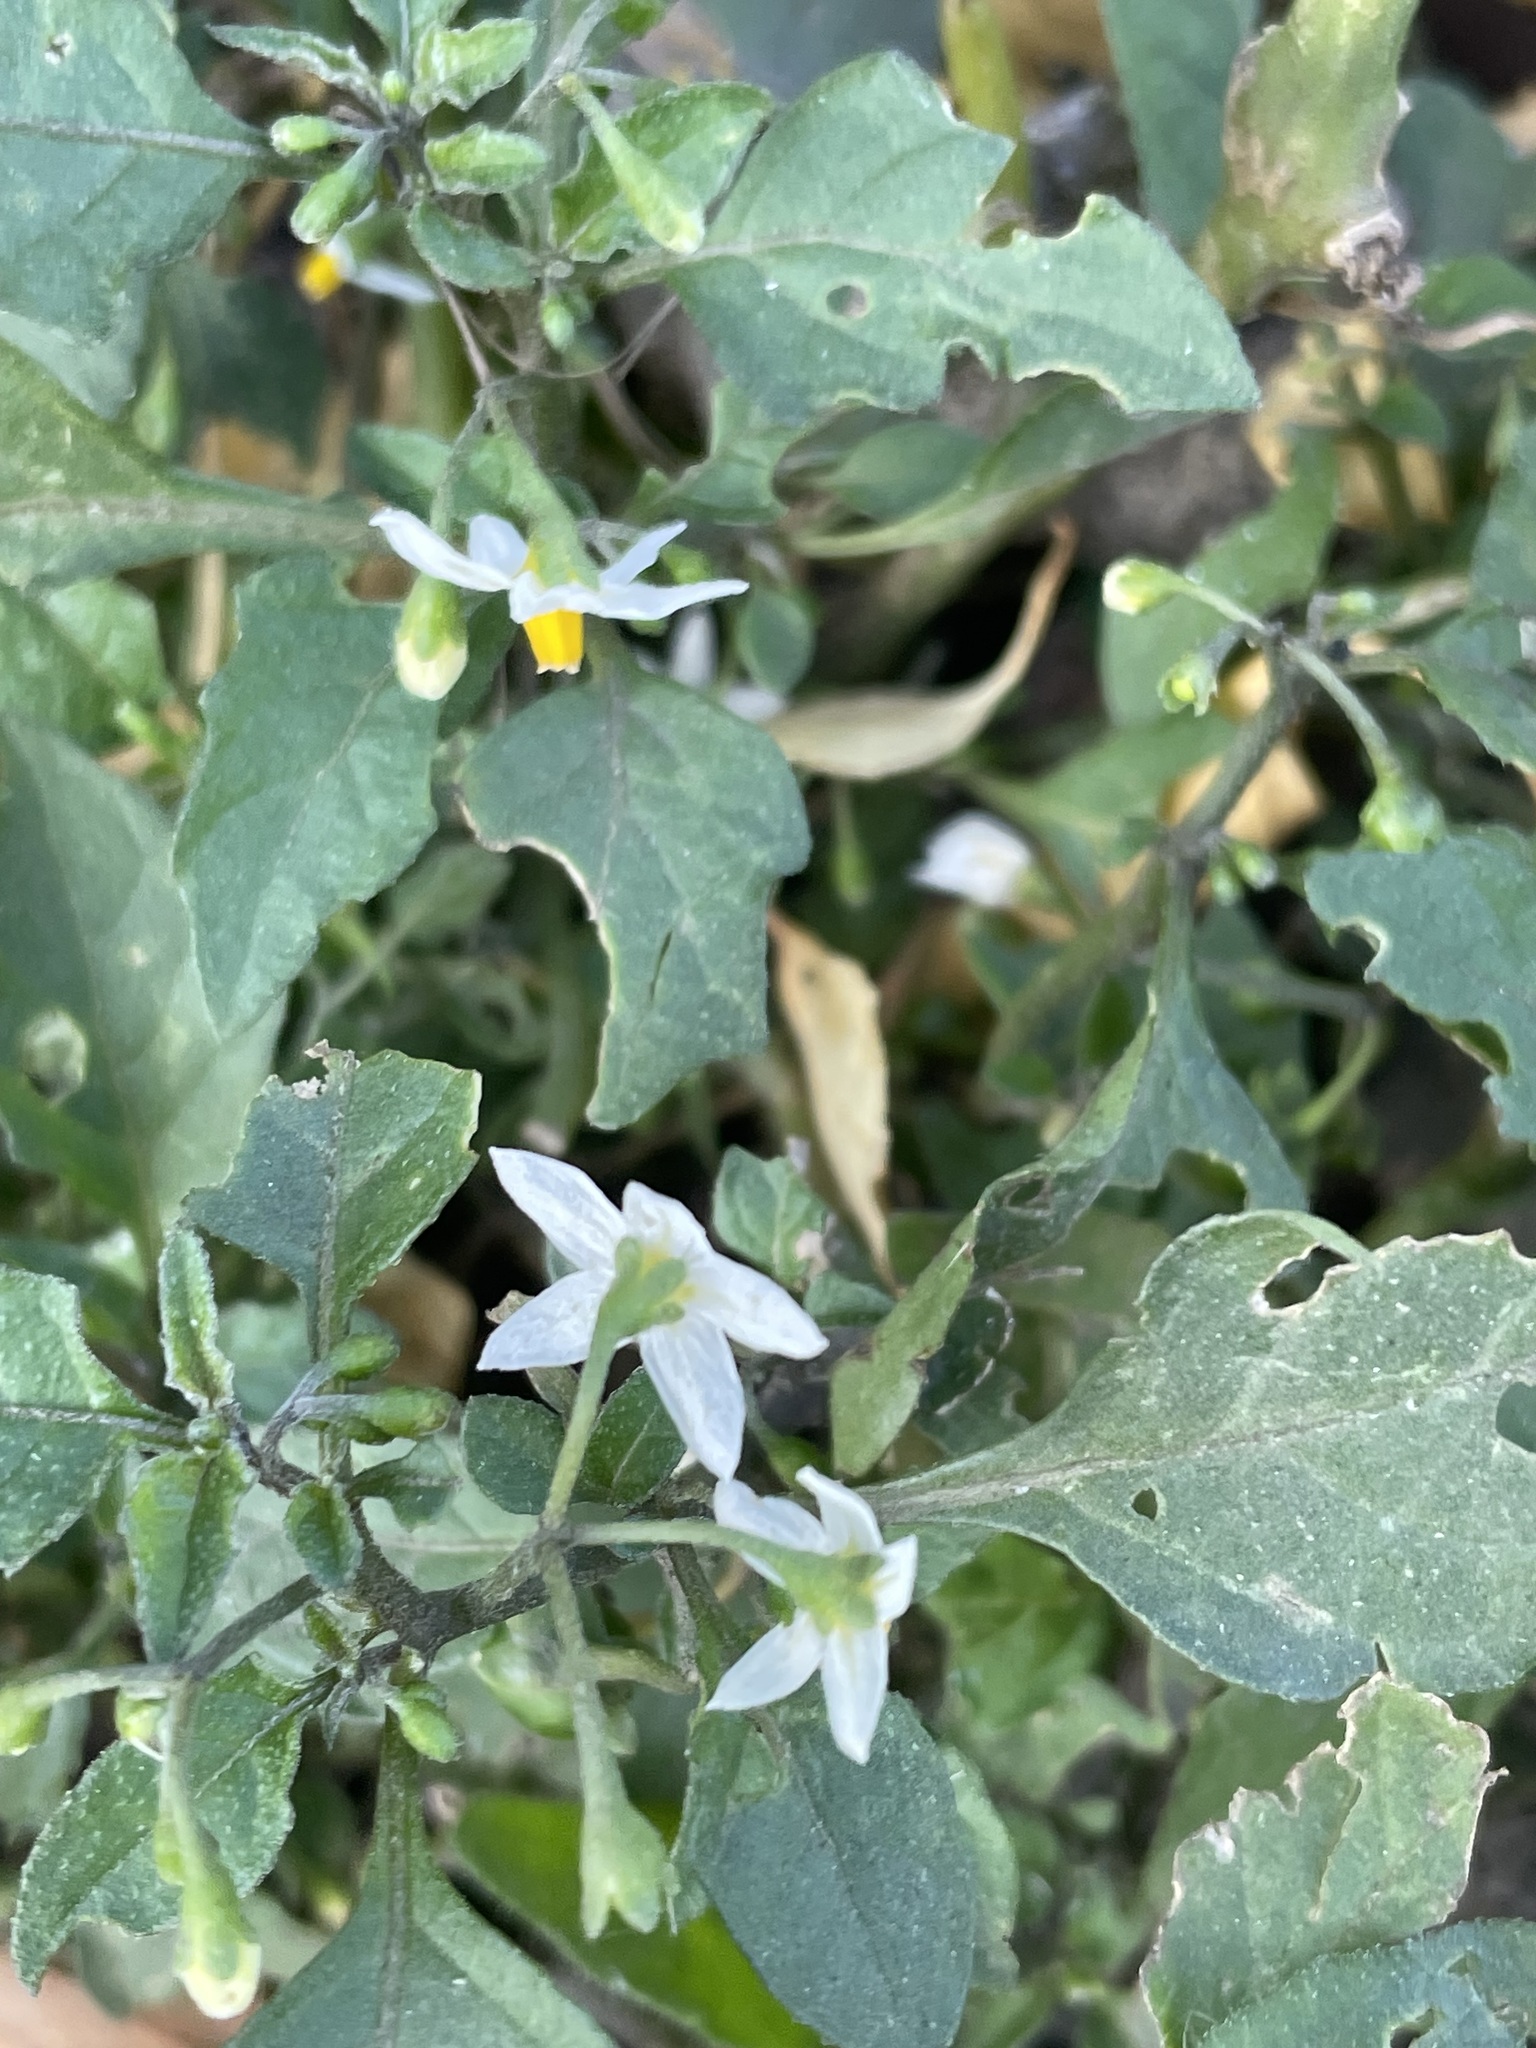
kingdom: Plantae
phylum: Tracheophyta
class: Magnoliopsida
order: Solanales
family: Solanaceae
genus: Solanum
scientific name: Solanum nigrum
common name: Black nightshade
